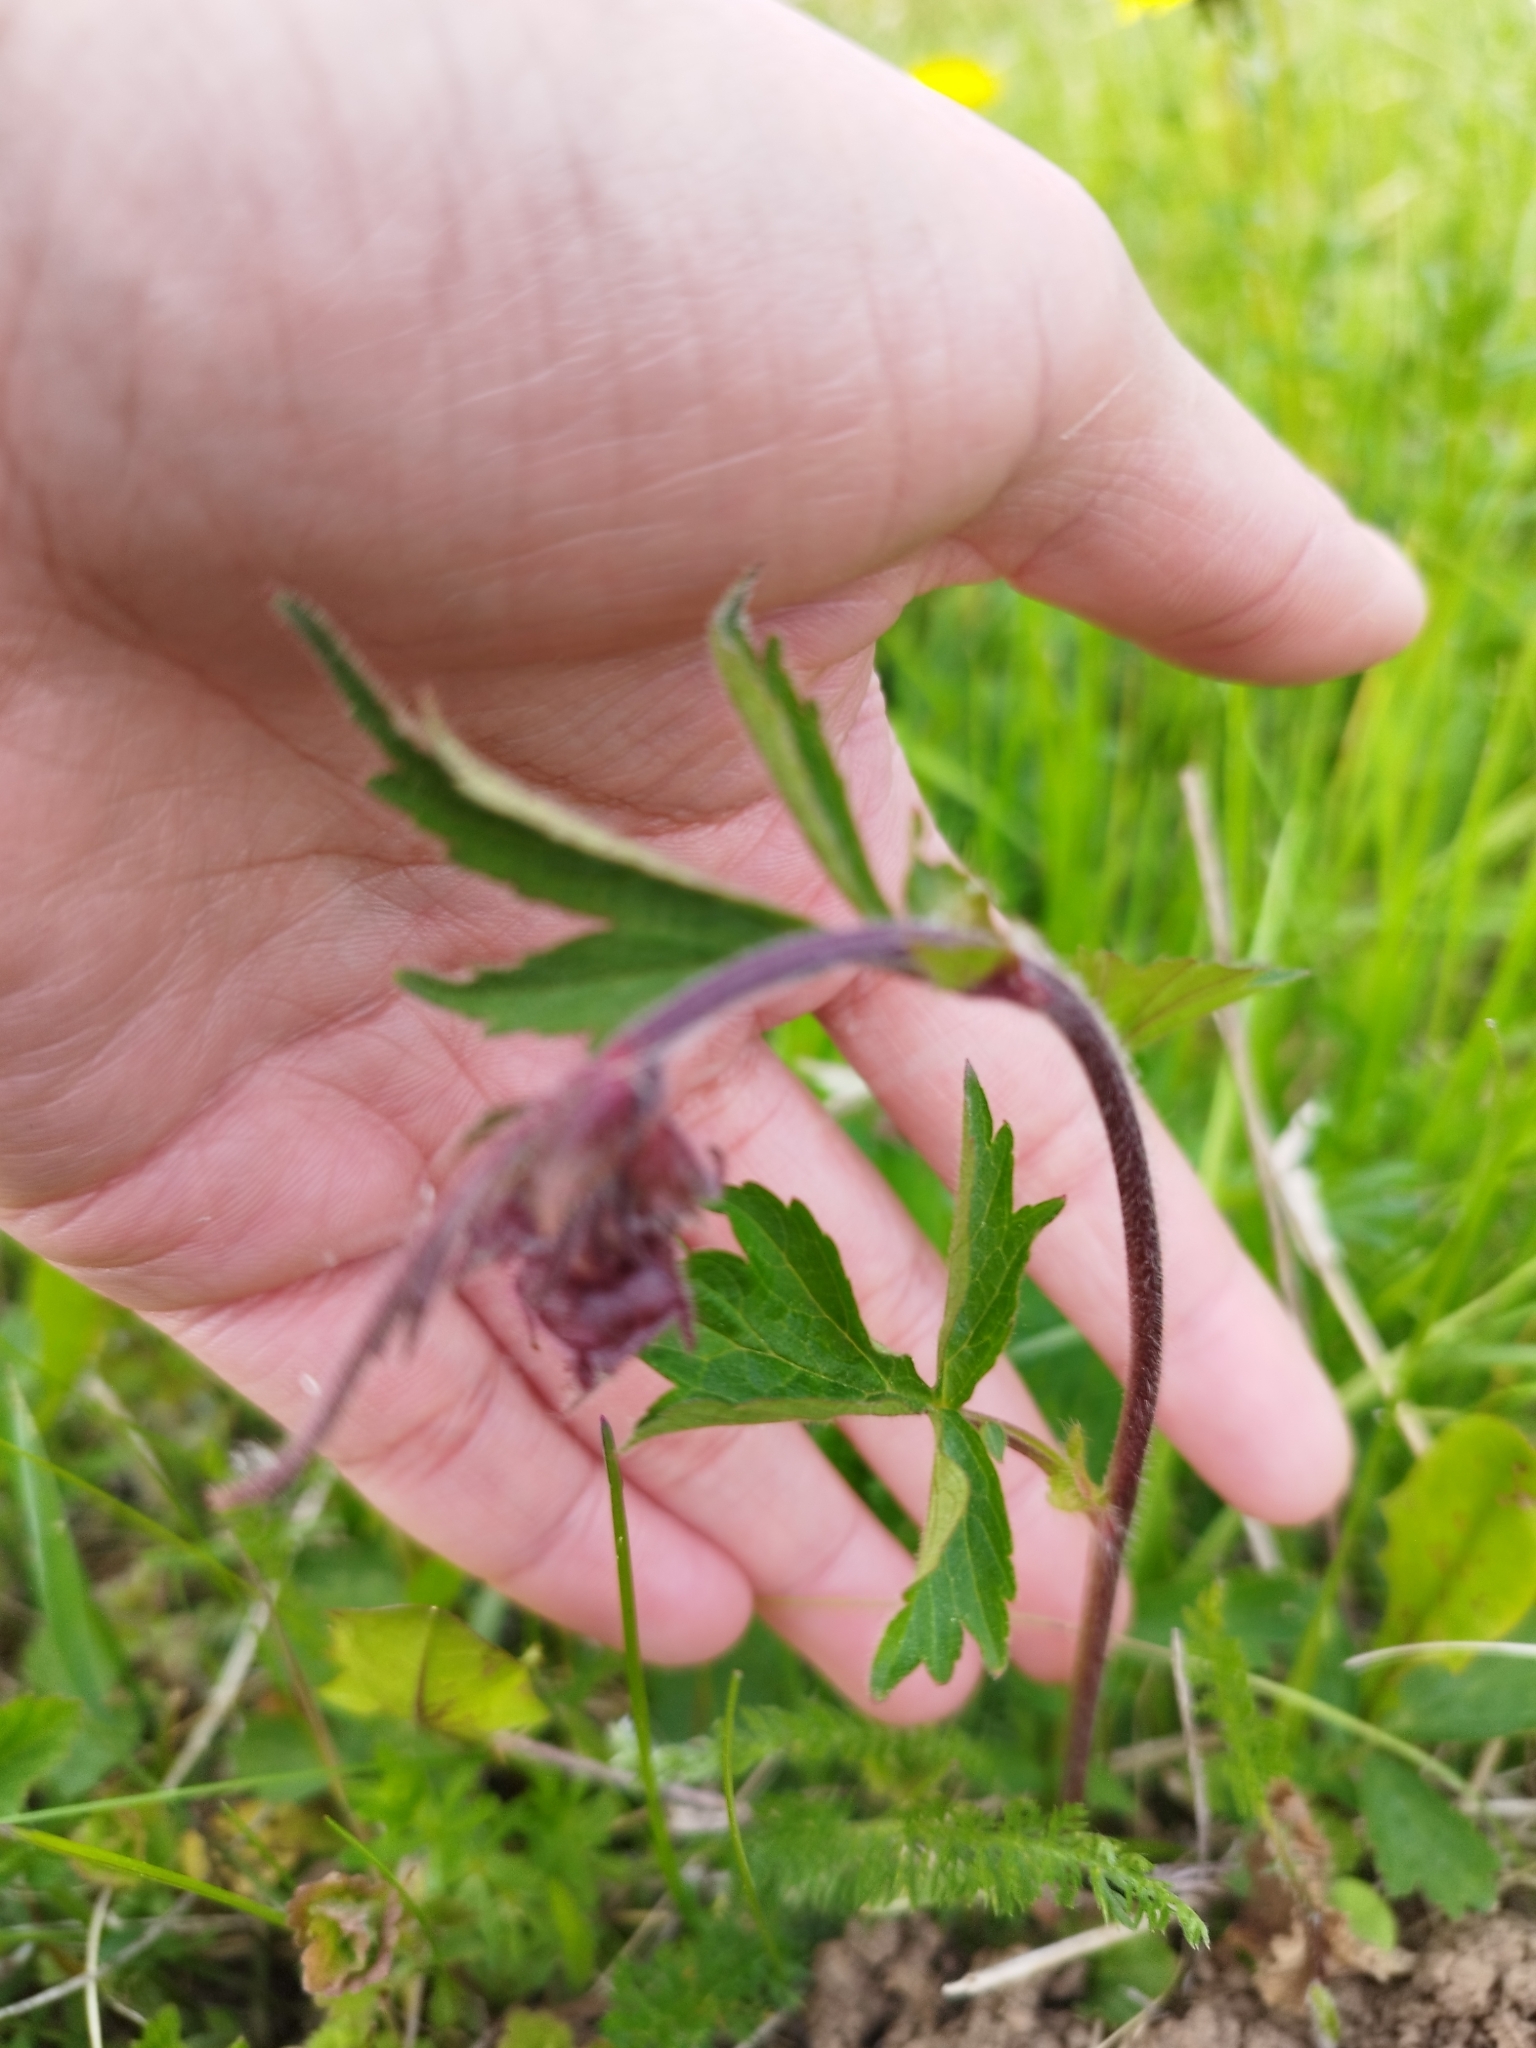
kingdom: Plantae
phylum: Tracheophyta
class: Magnoliopsida
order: Rosales
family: Rosaceae
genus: Geum
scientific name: Geum rivale
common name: Water avens
